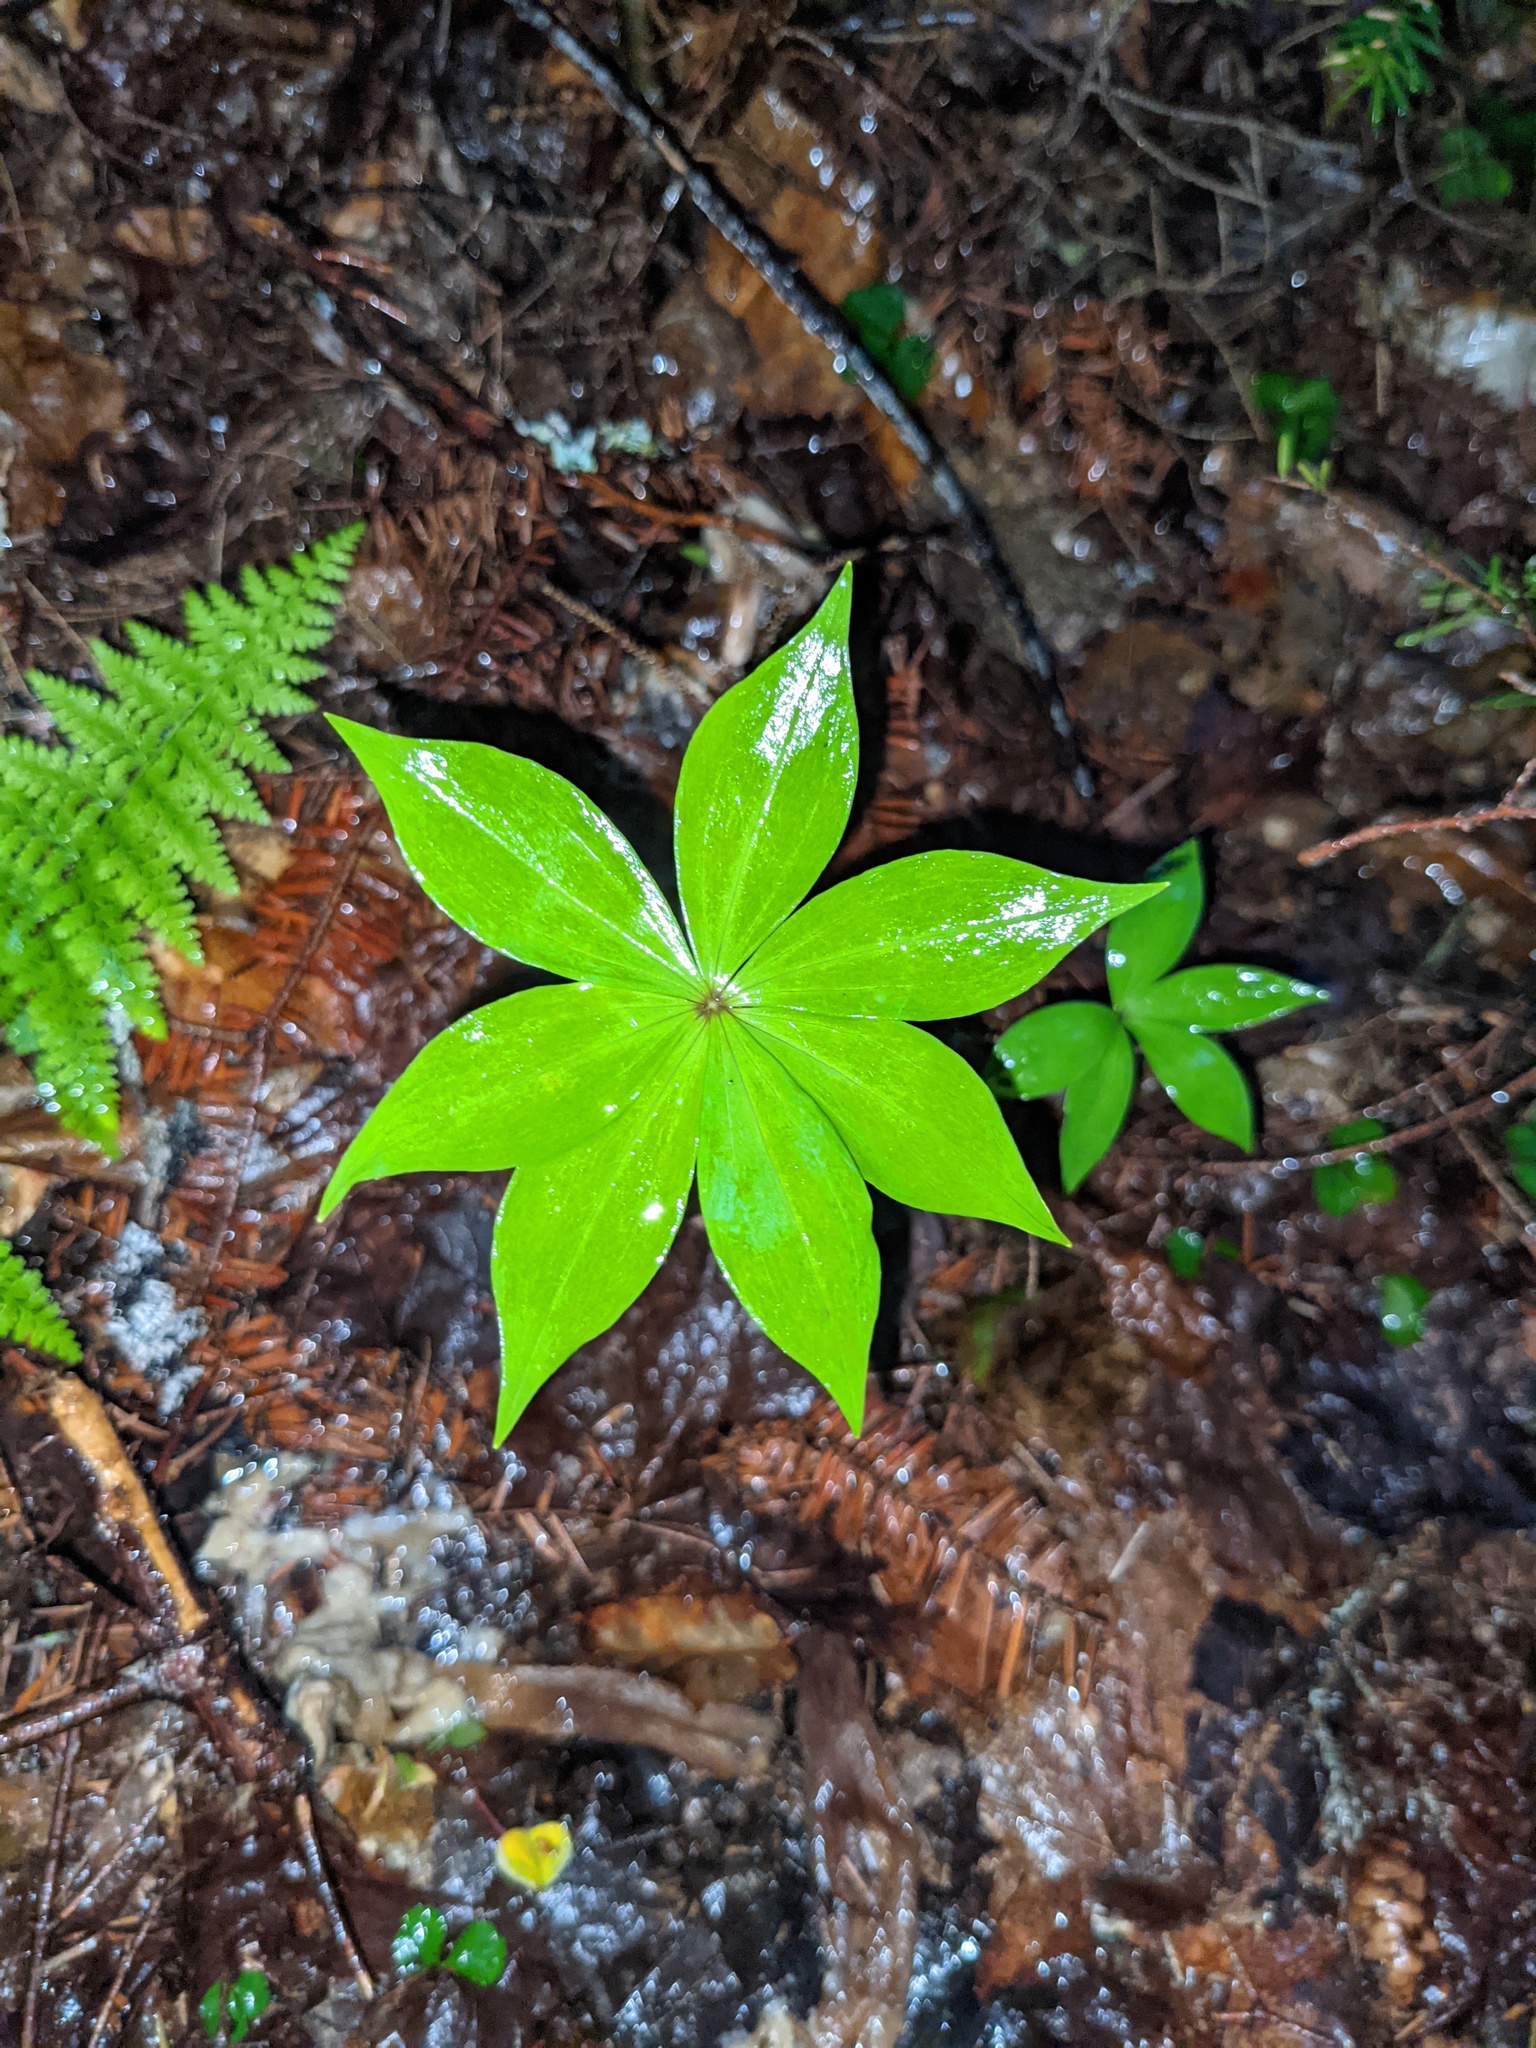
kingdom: Plantae
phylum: Tracheophyta
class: Liliopsida
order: Liliales
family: Liliaceae
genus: Medeola
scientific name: Medeola virginiana
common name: Indian cucumber-root
